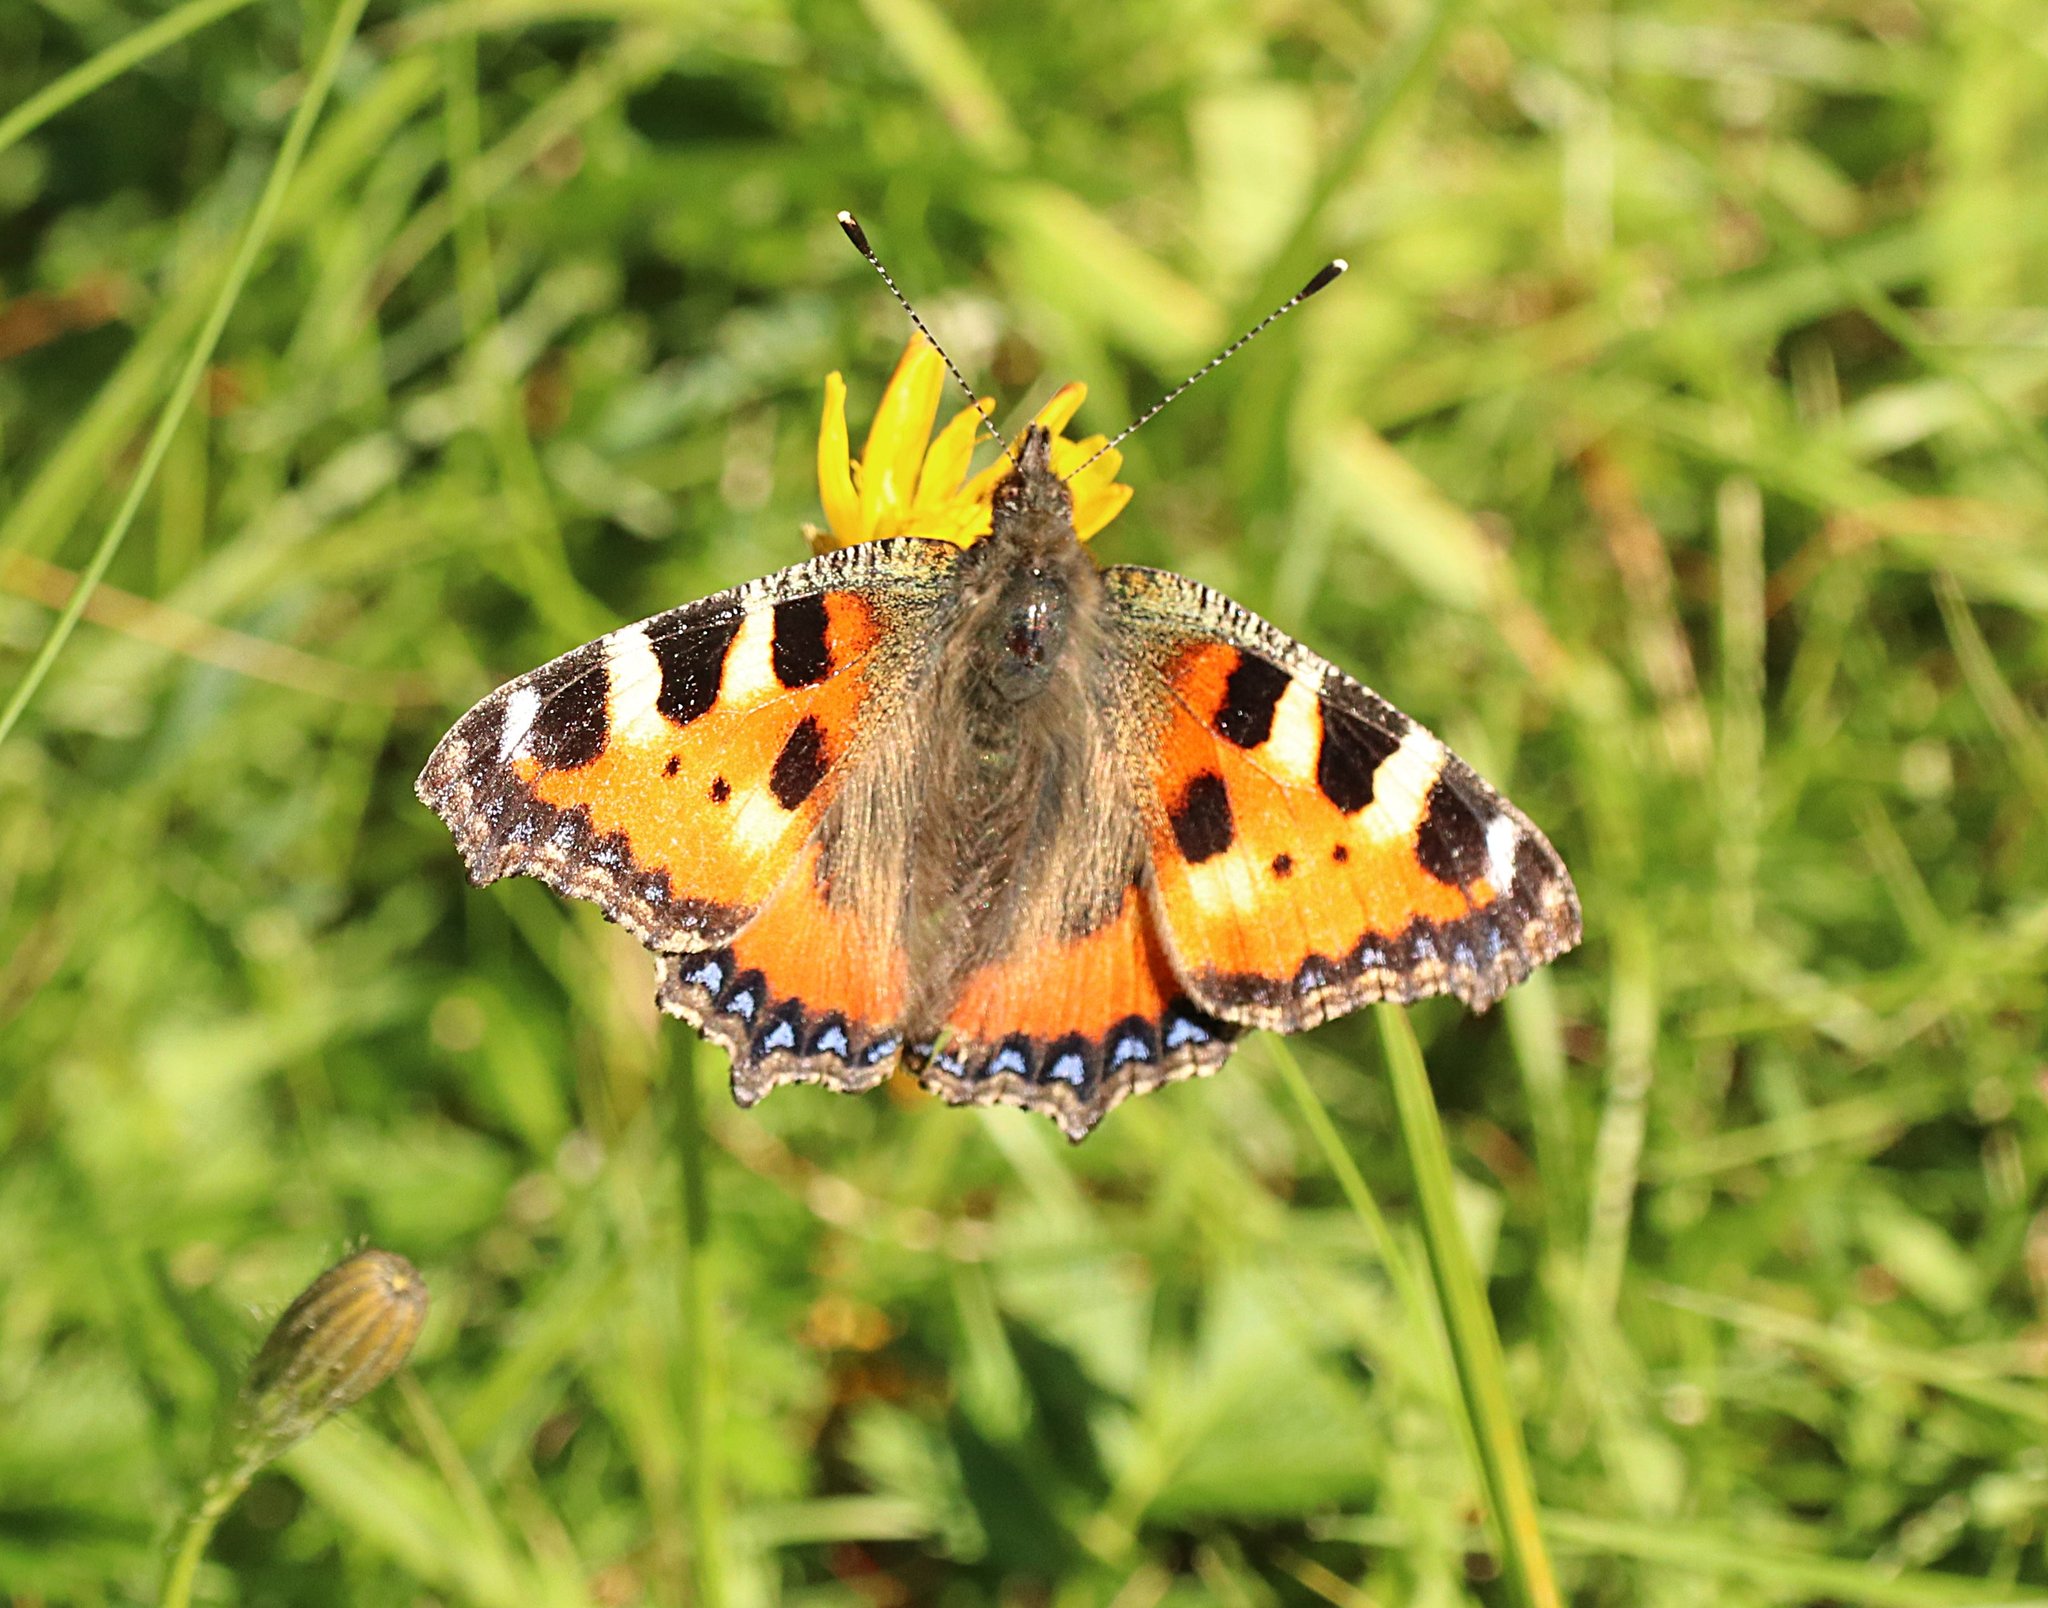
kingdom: Animalia
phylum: Arthropoda
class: Insecta
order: Lepidoptera
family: Nymphalidae
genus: Aglais
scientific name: Aglais urticae
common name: Small tortoiseshell
